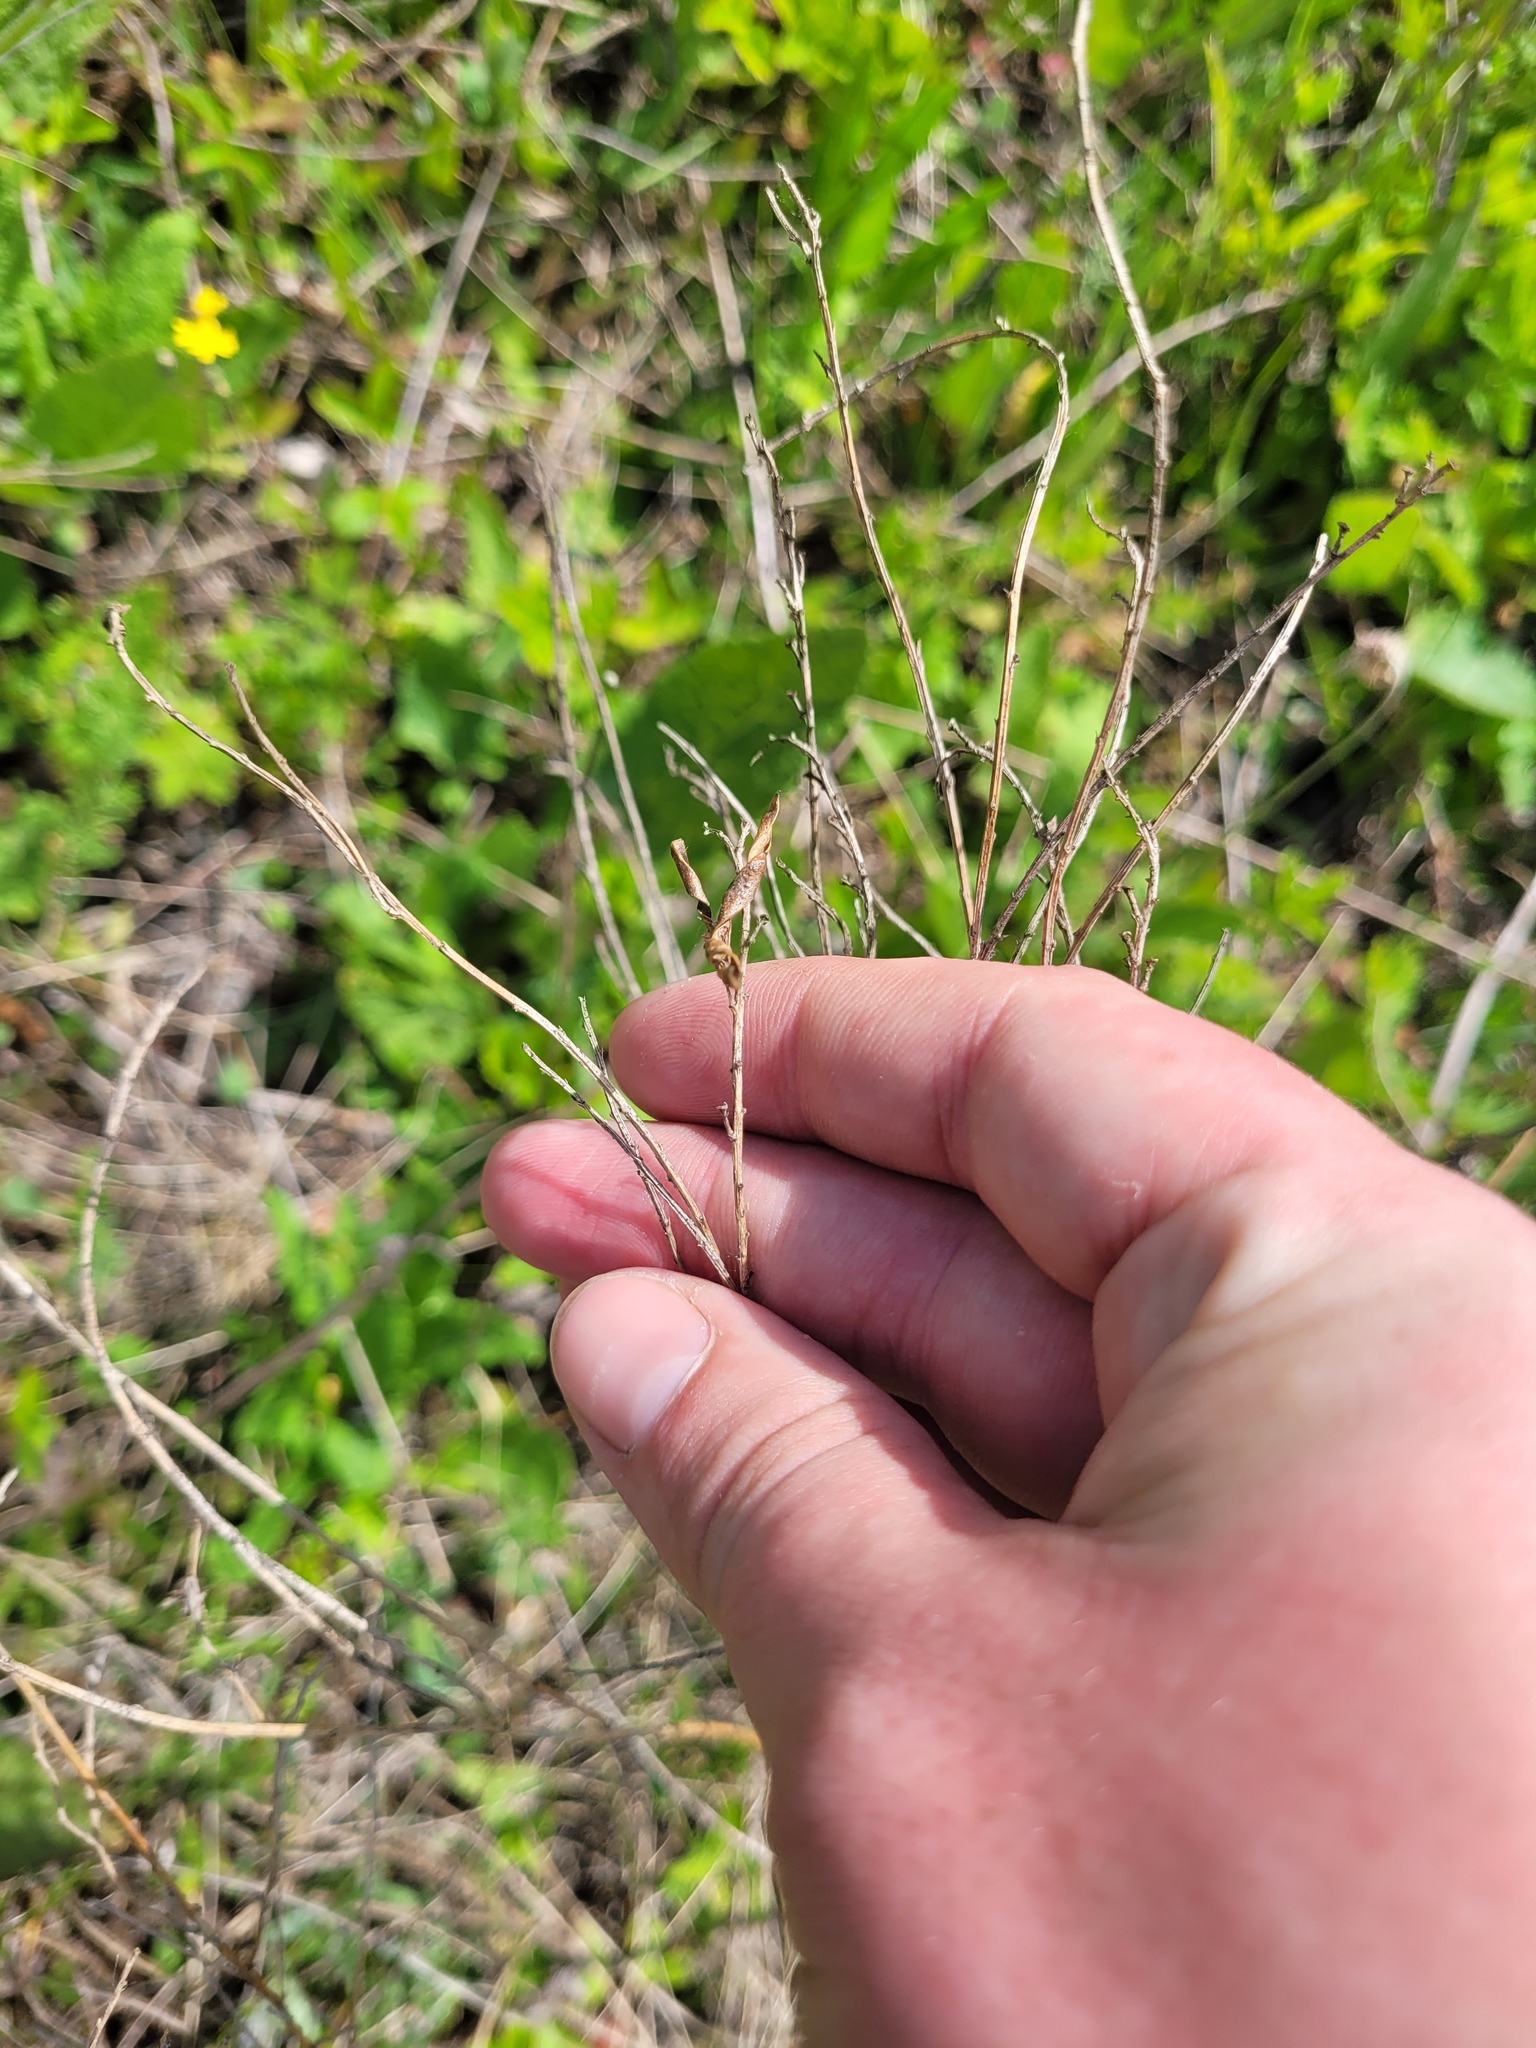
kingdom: Plantae
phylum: Tracheophyta
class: Magnoliopsida
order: Fabales
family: Fabaceae
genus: Genista
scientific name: Genista tinctoria
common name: Dyer's greenweed
